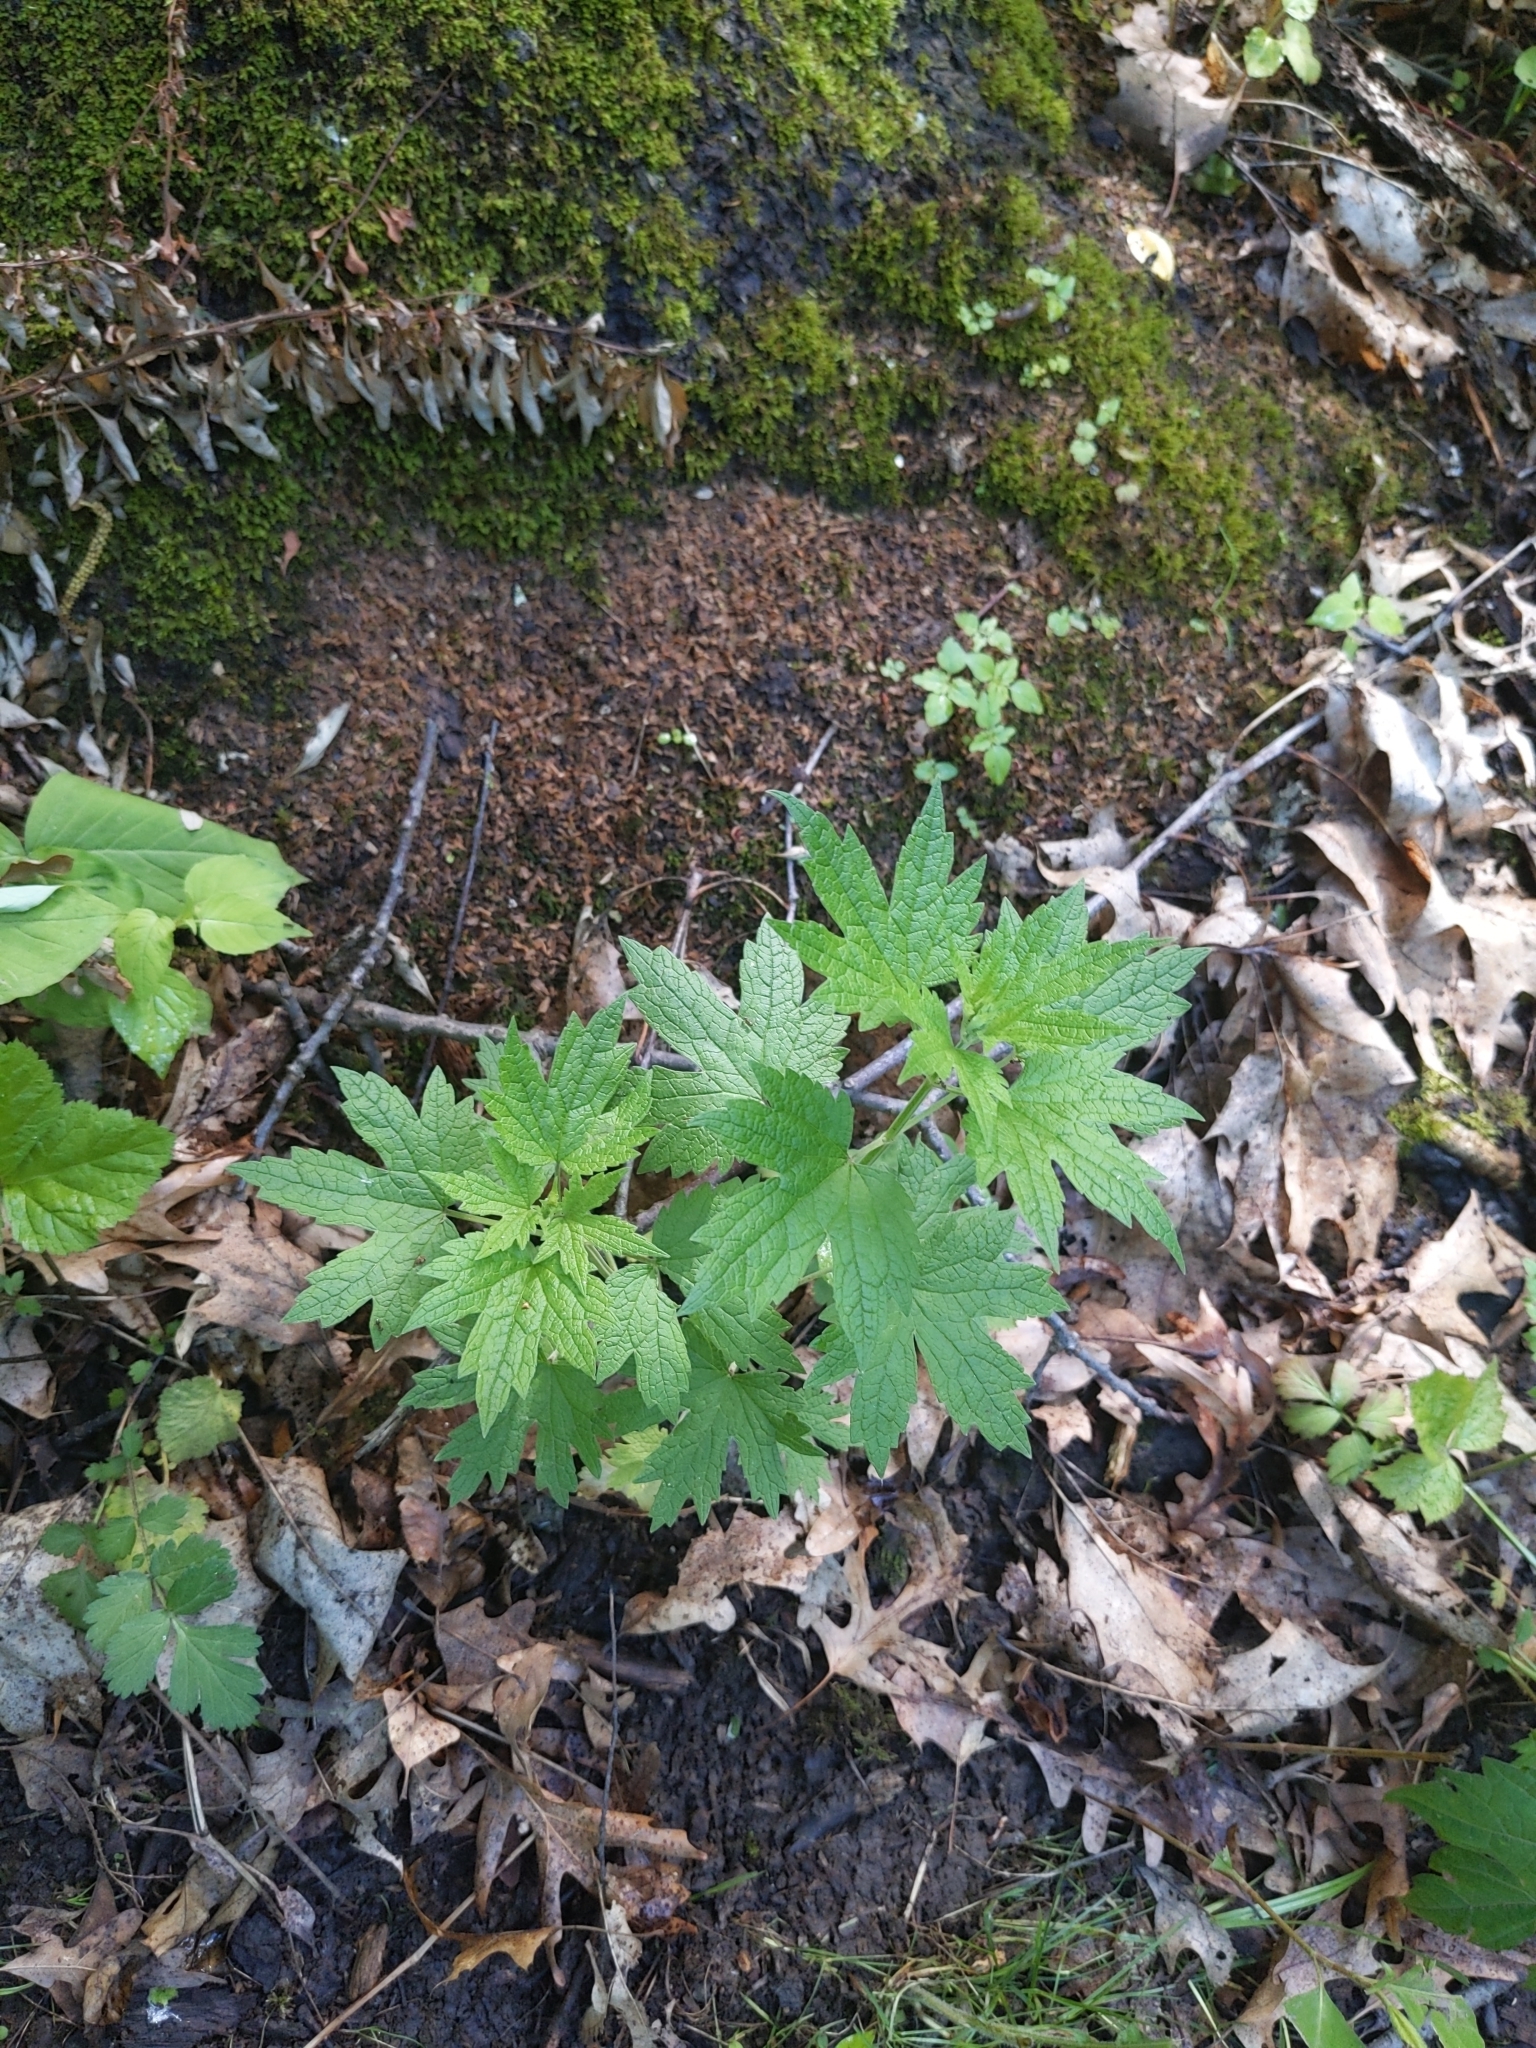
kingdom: Plantae
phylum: Tracheophyta
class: Magnoliopsida
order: Lamiales
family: Lamiaceae
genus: Leonurus
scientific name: Leonurus cardiaca
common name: Motherwort
